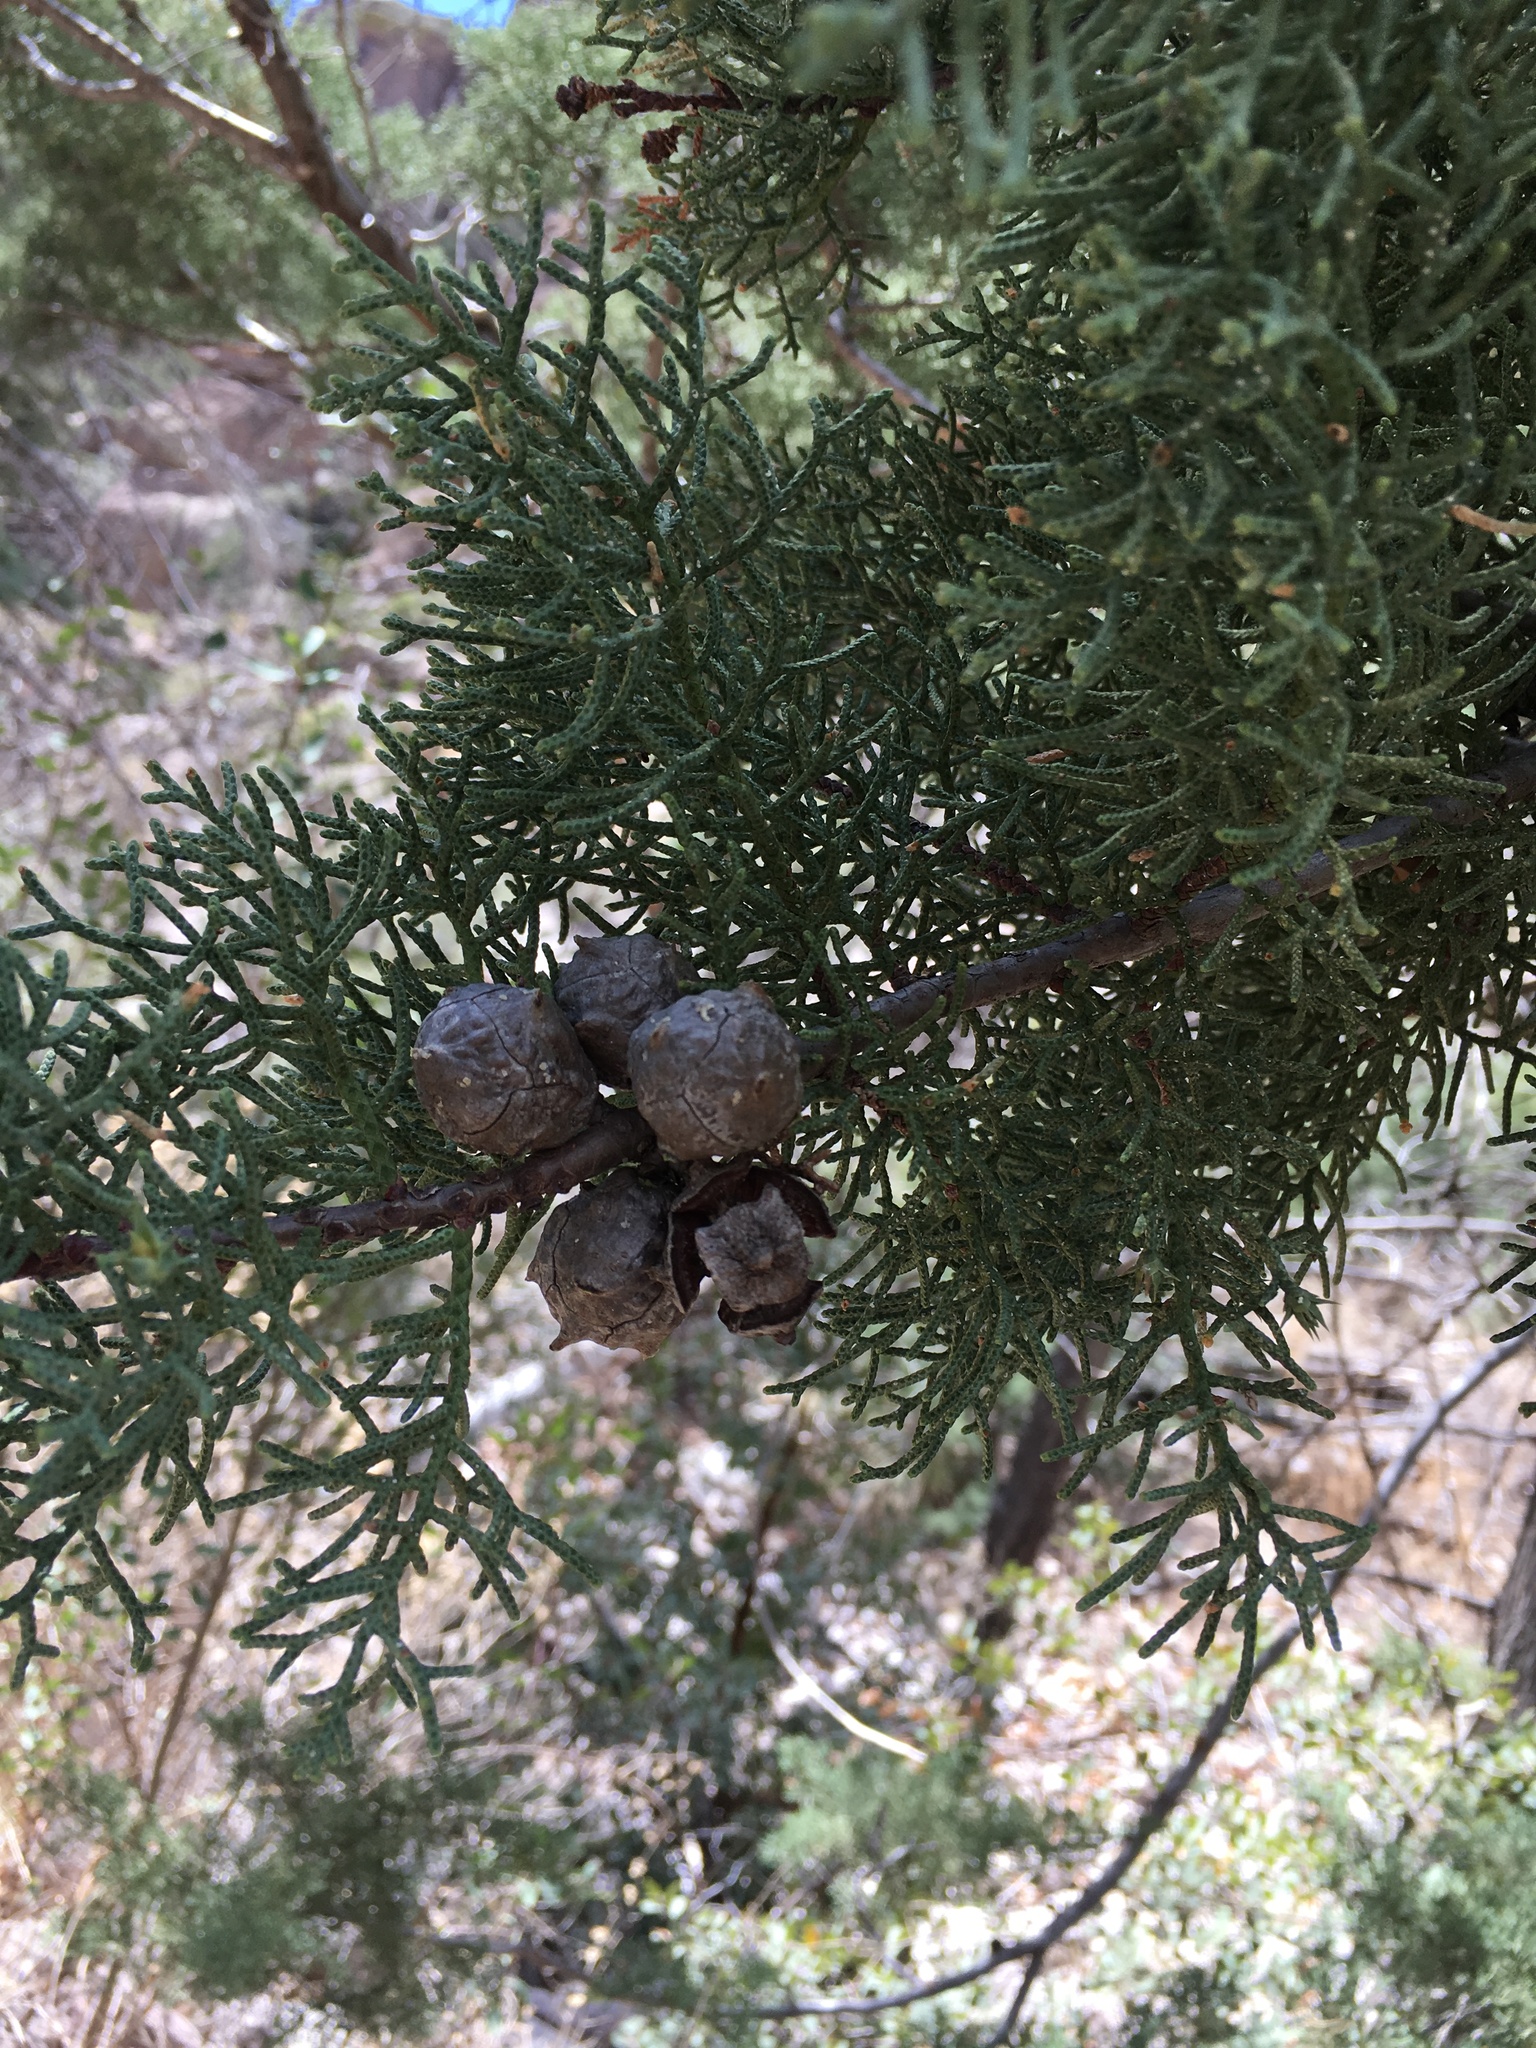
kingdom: Plantae
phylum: Tracheophyta
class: Pinopsida
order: Pinales
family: Cupressaceae
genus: Cupressus
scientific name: Cupressus arizonica
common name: Arizona cypress
